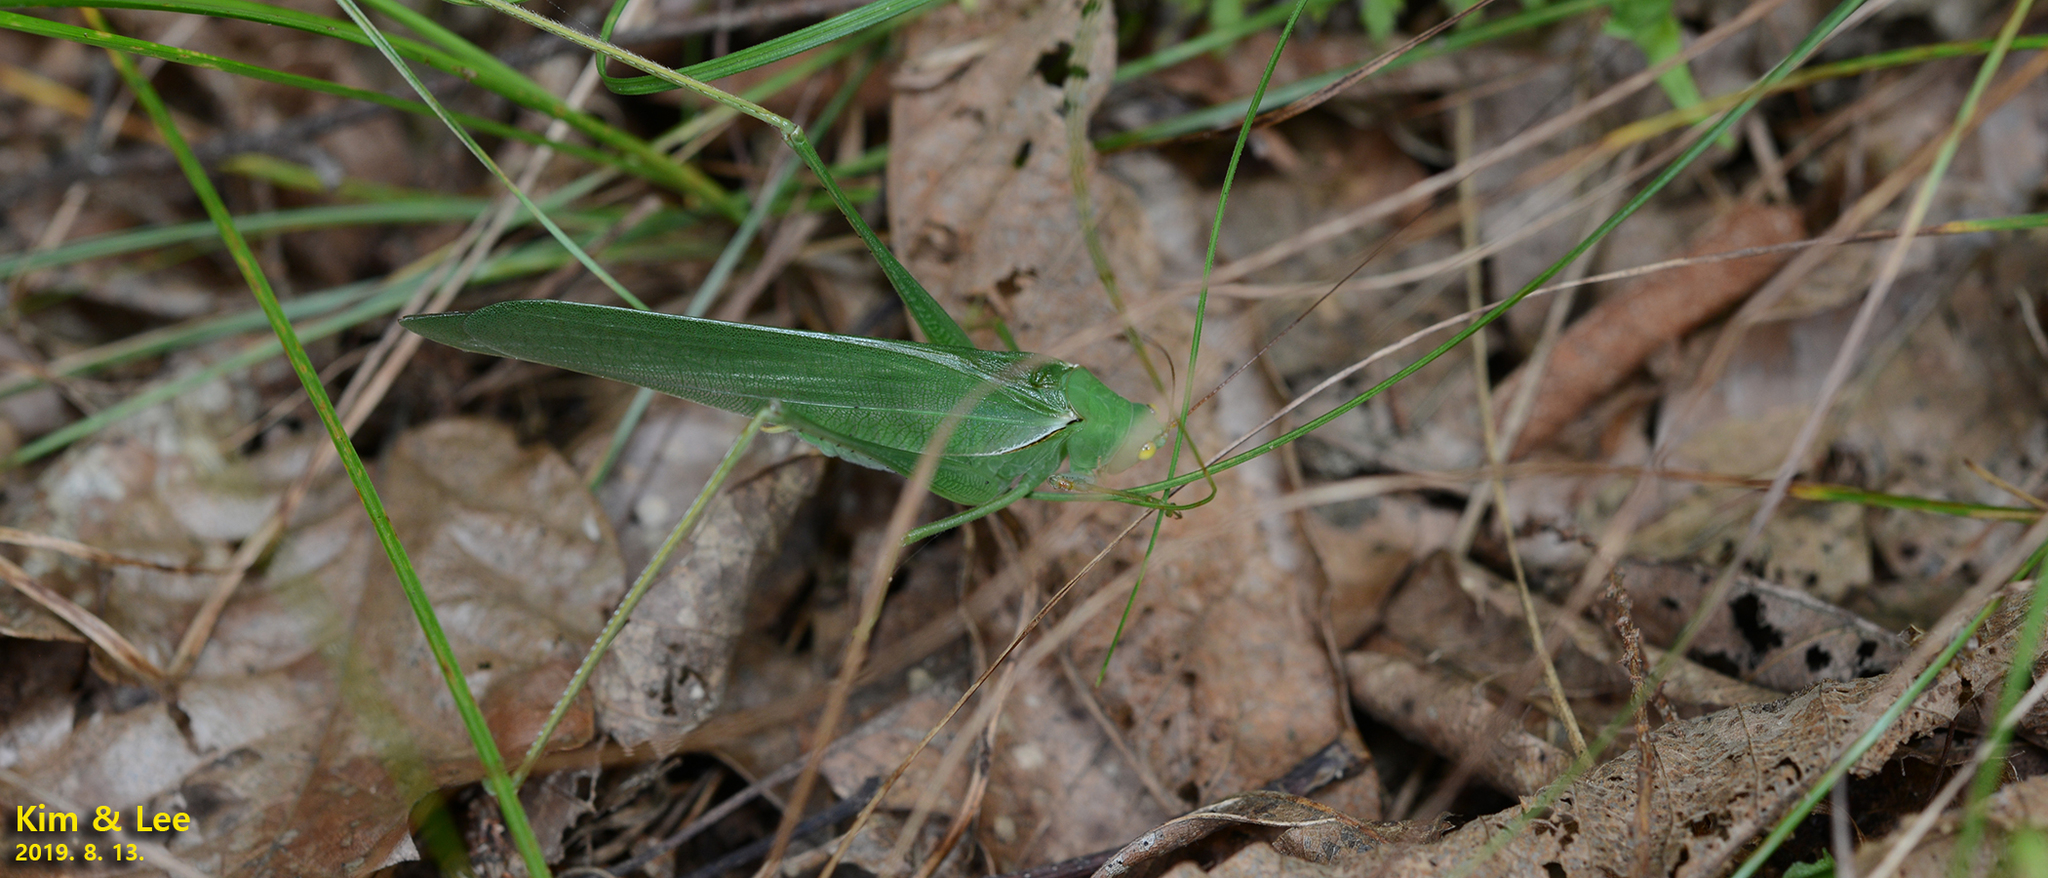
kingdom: Animalia
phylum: Arthropoda
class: Insecta
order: Orthoptera
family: Tettigoniidae
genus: Sinochlora
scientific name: Sinochlora longifissa
